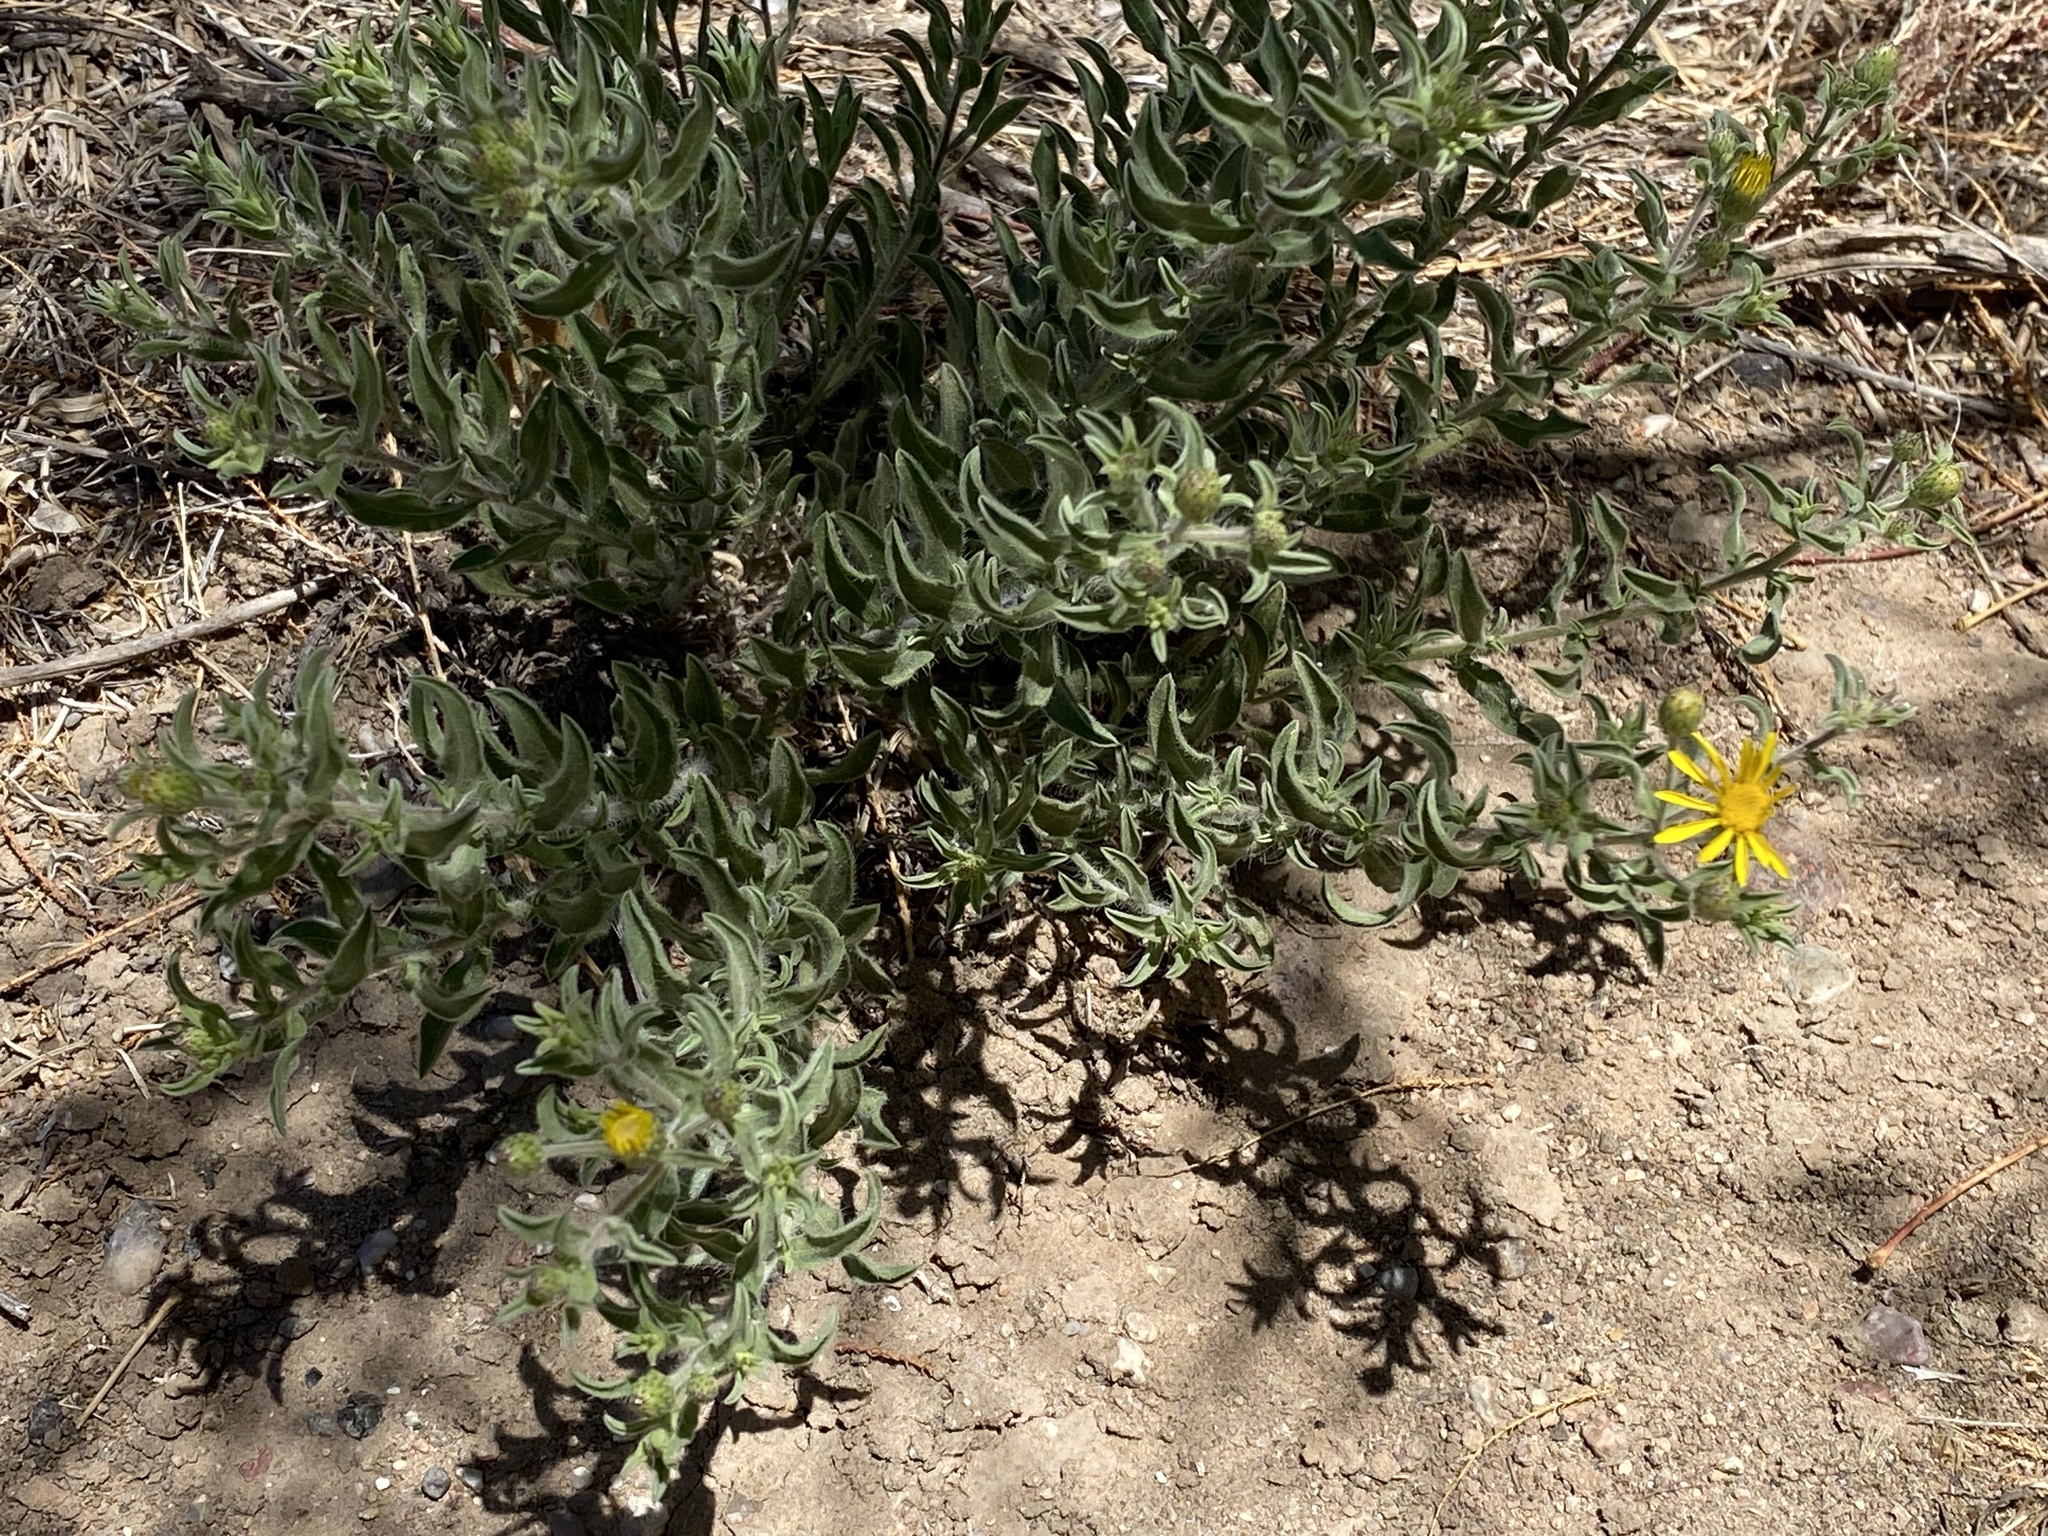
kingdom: Plantae
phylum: Tracheophyta
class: Magnoliopsida
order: Asterales
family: Asteraceae
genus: Heterotheca
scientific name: Heterotheca hirsutissima
